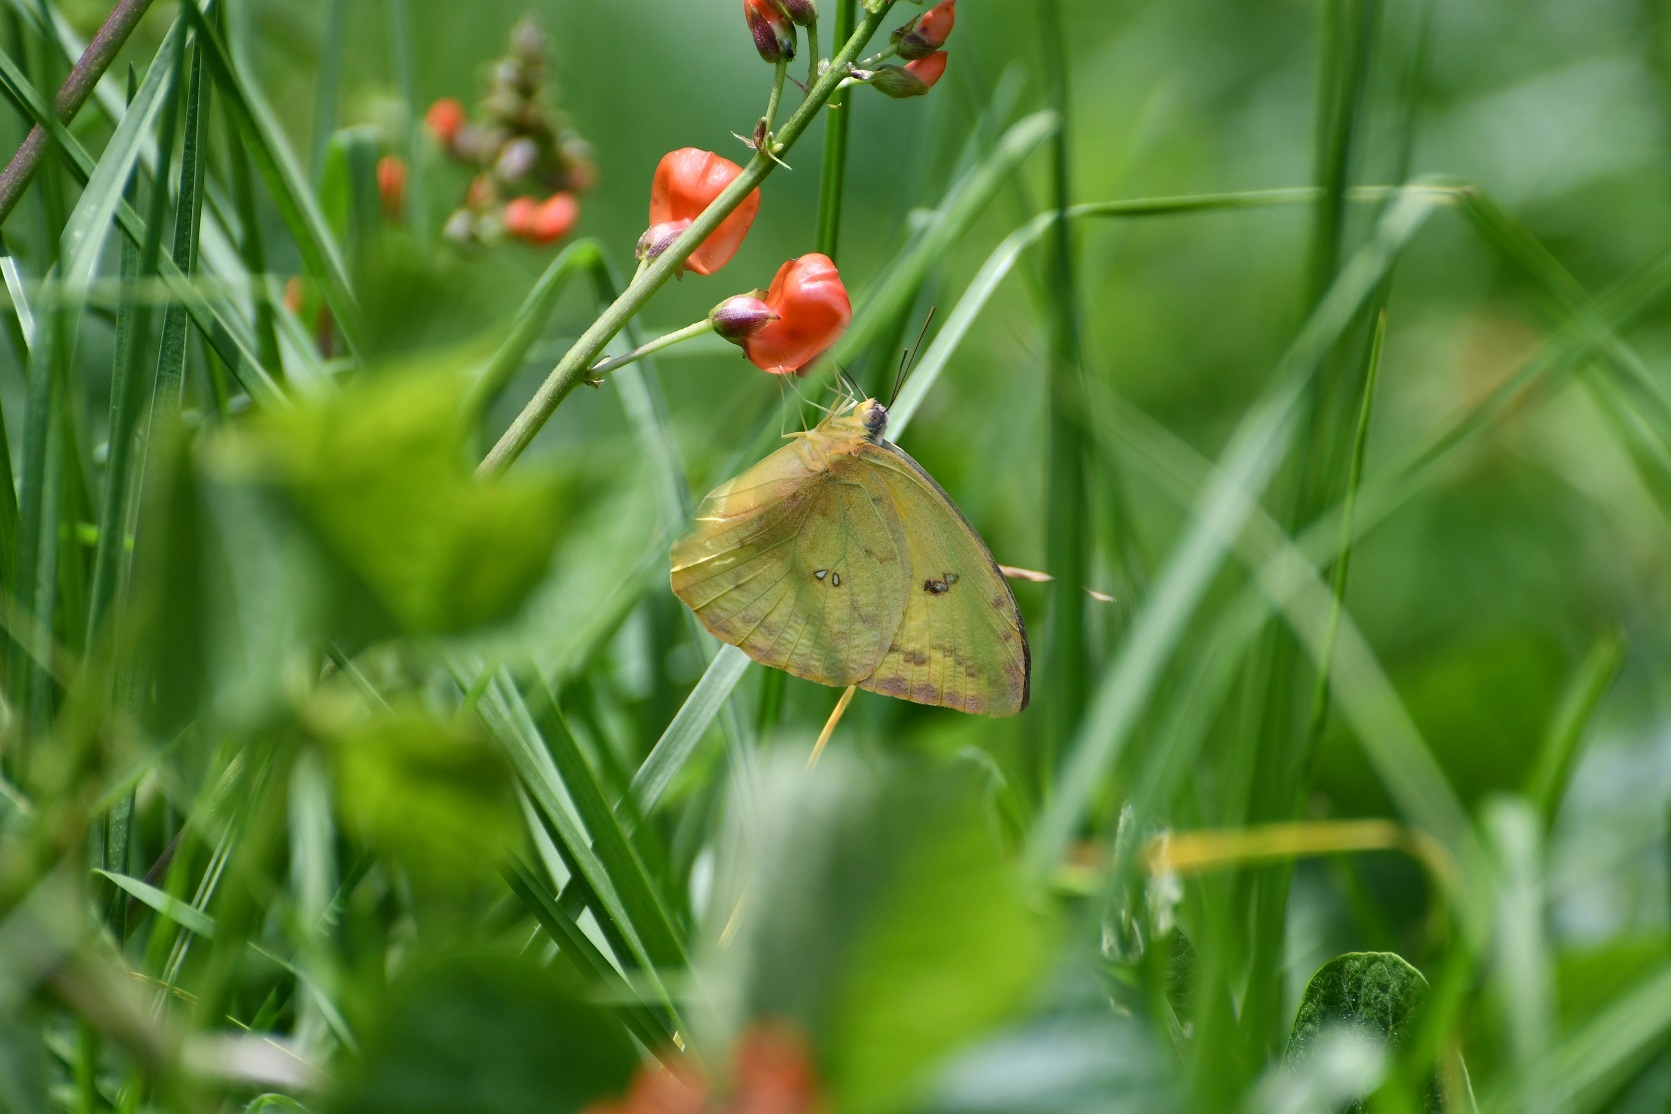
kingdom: Animalia
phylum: Arthropoda
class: Insecta
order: Lepidoptera
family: Pieridae
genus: Phoebis
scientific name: Phoebis marcellina
